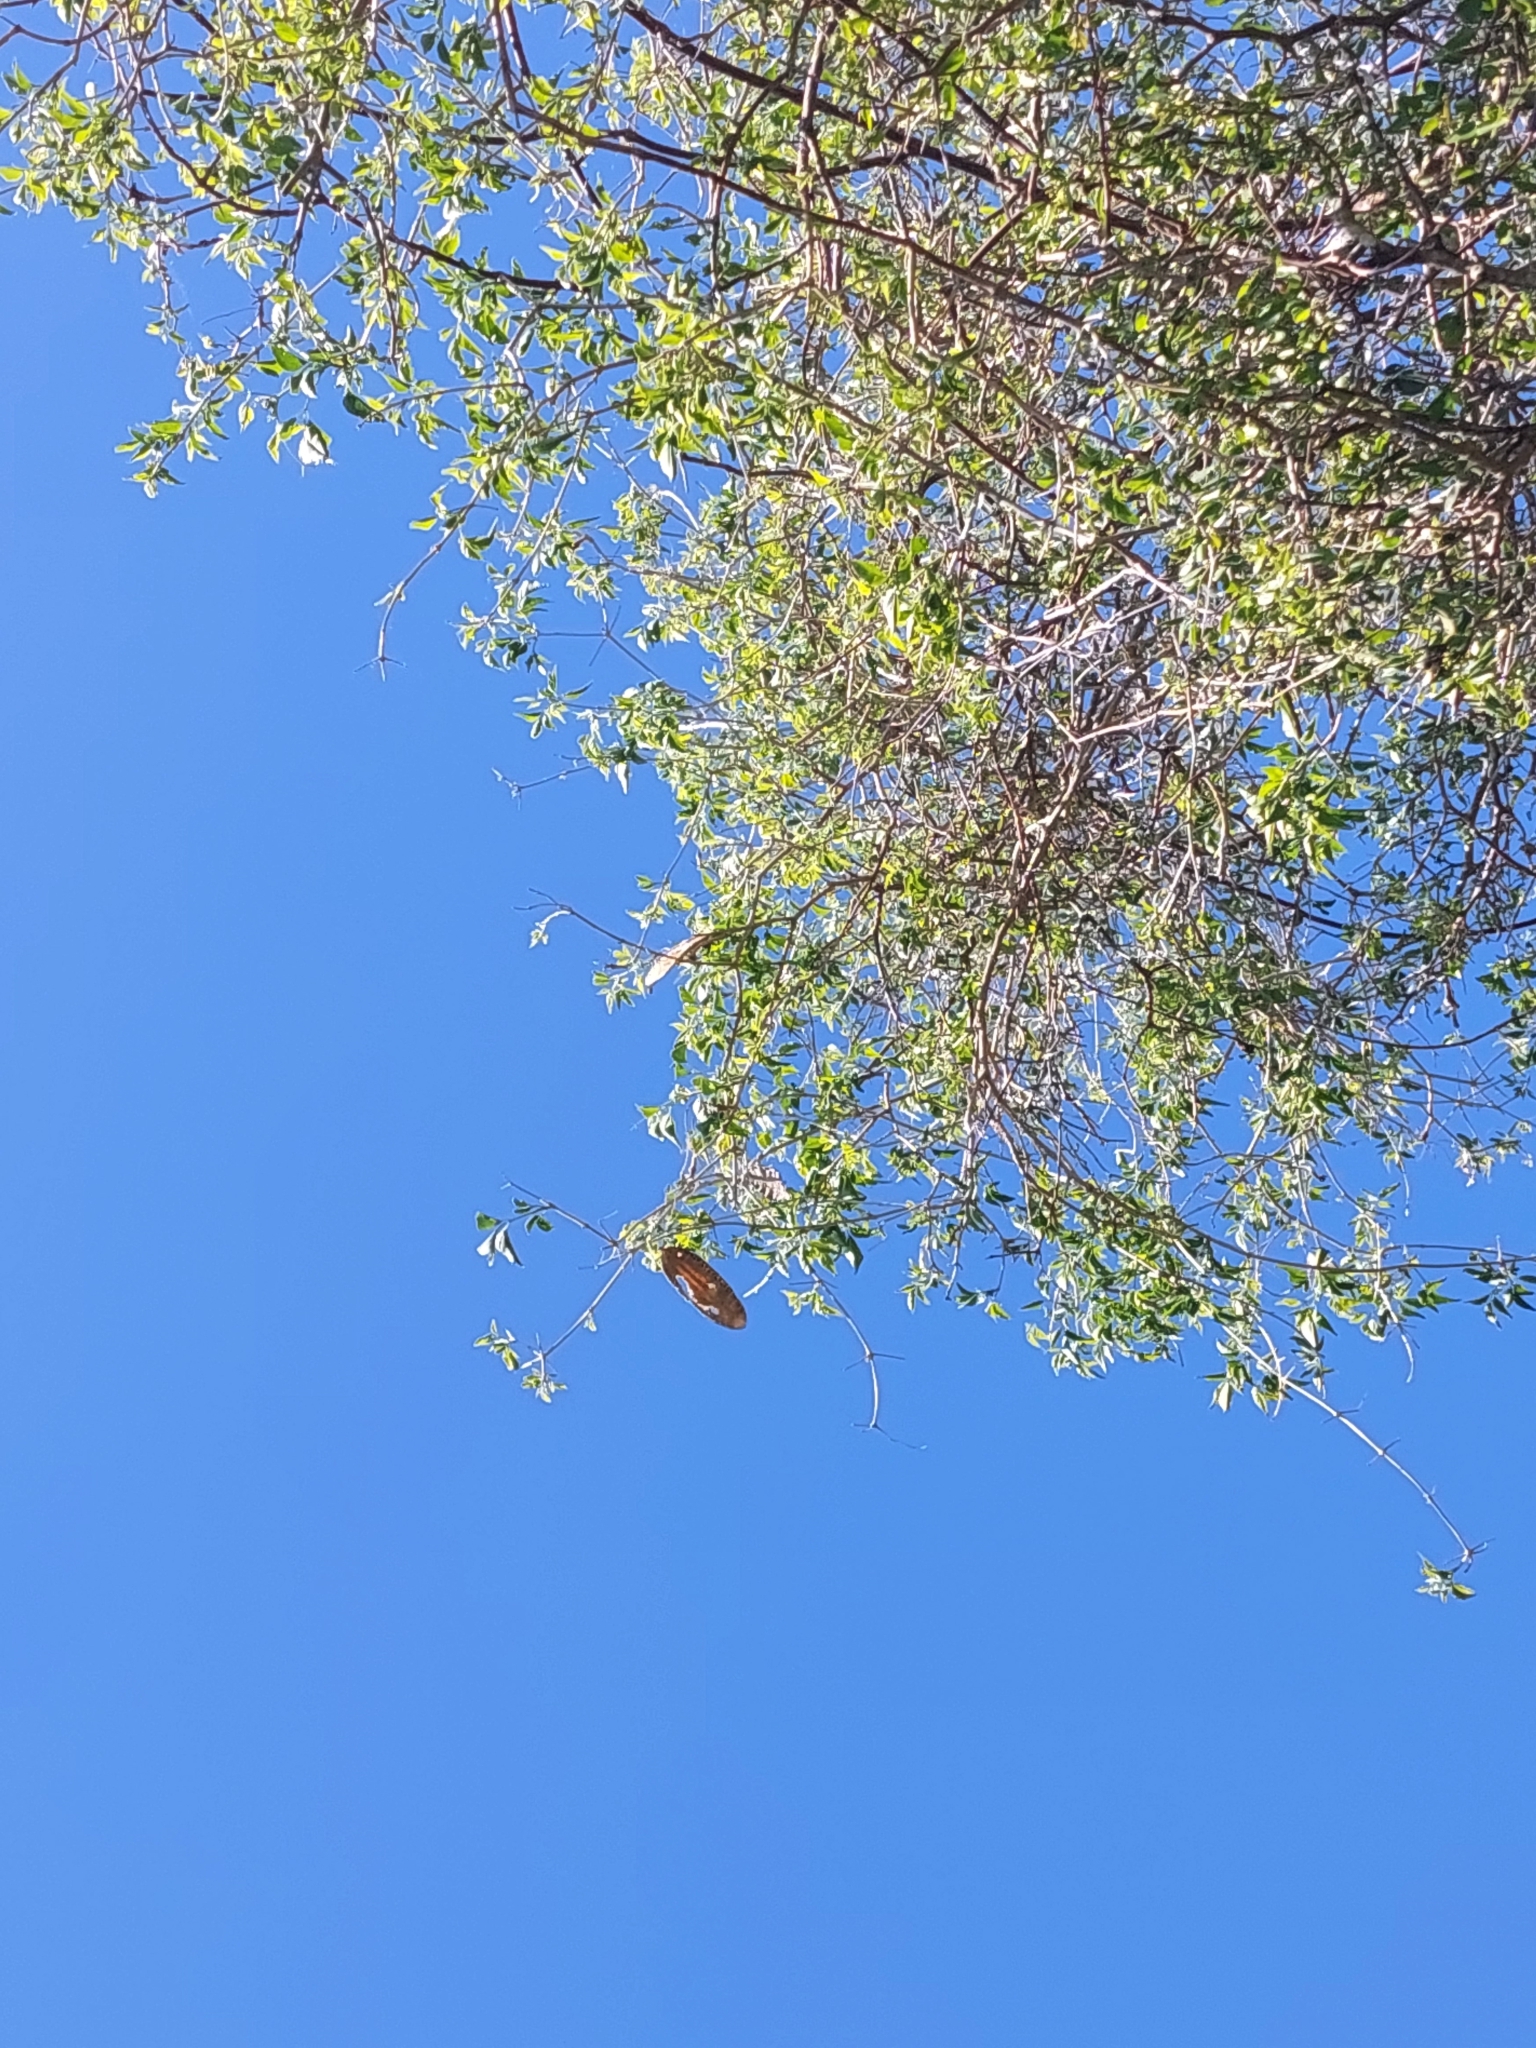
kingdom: Plantae
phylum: Tracheophyta
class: Magnoliopsida
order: Lamiales
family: Bignoniaceae
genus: Amphilophium
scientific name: Amphilophium carolinae
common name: Monkey's-comb
